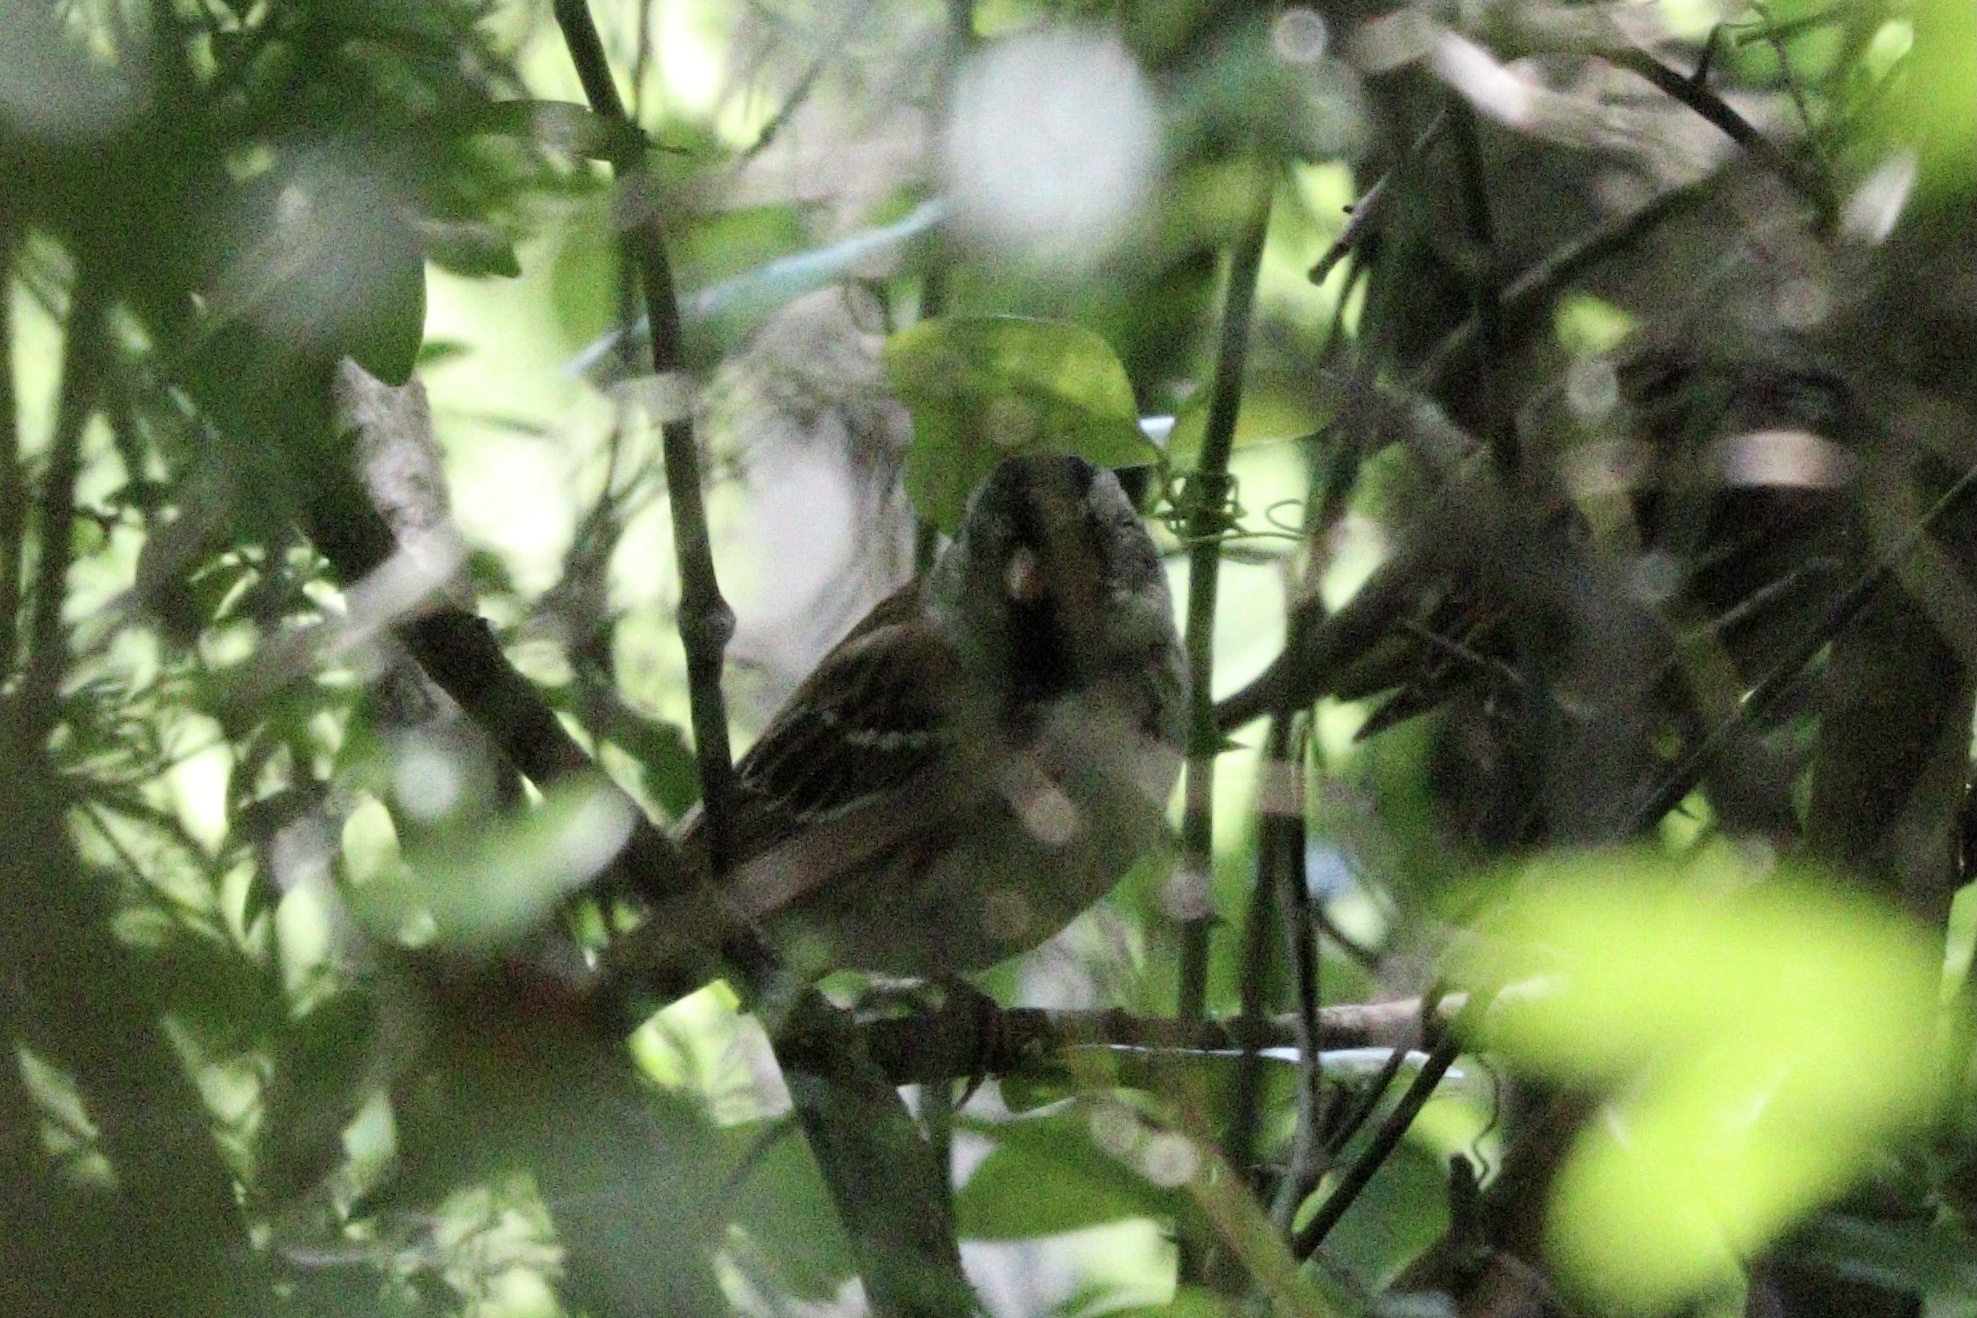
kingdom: Animalia
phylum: Chordata
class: Aves
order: Passeriformes
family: Passerellidae
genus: Zonotrichia
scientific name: Zonotrichia querula
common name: Harris's sparrow
